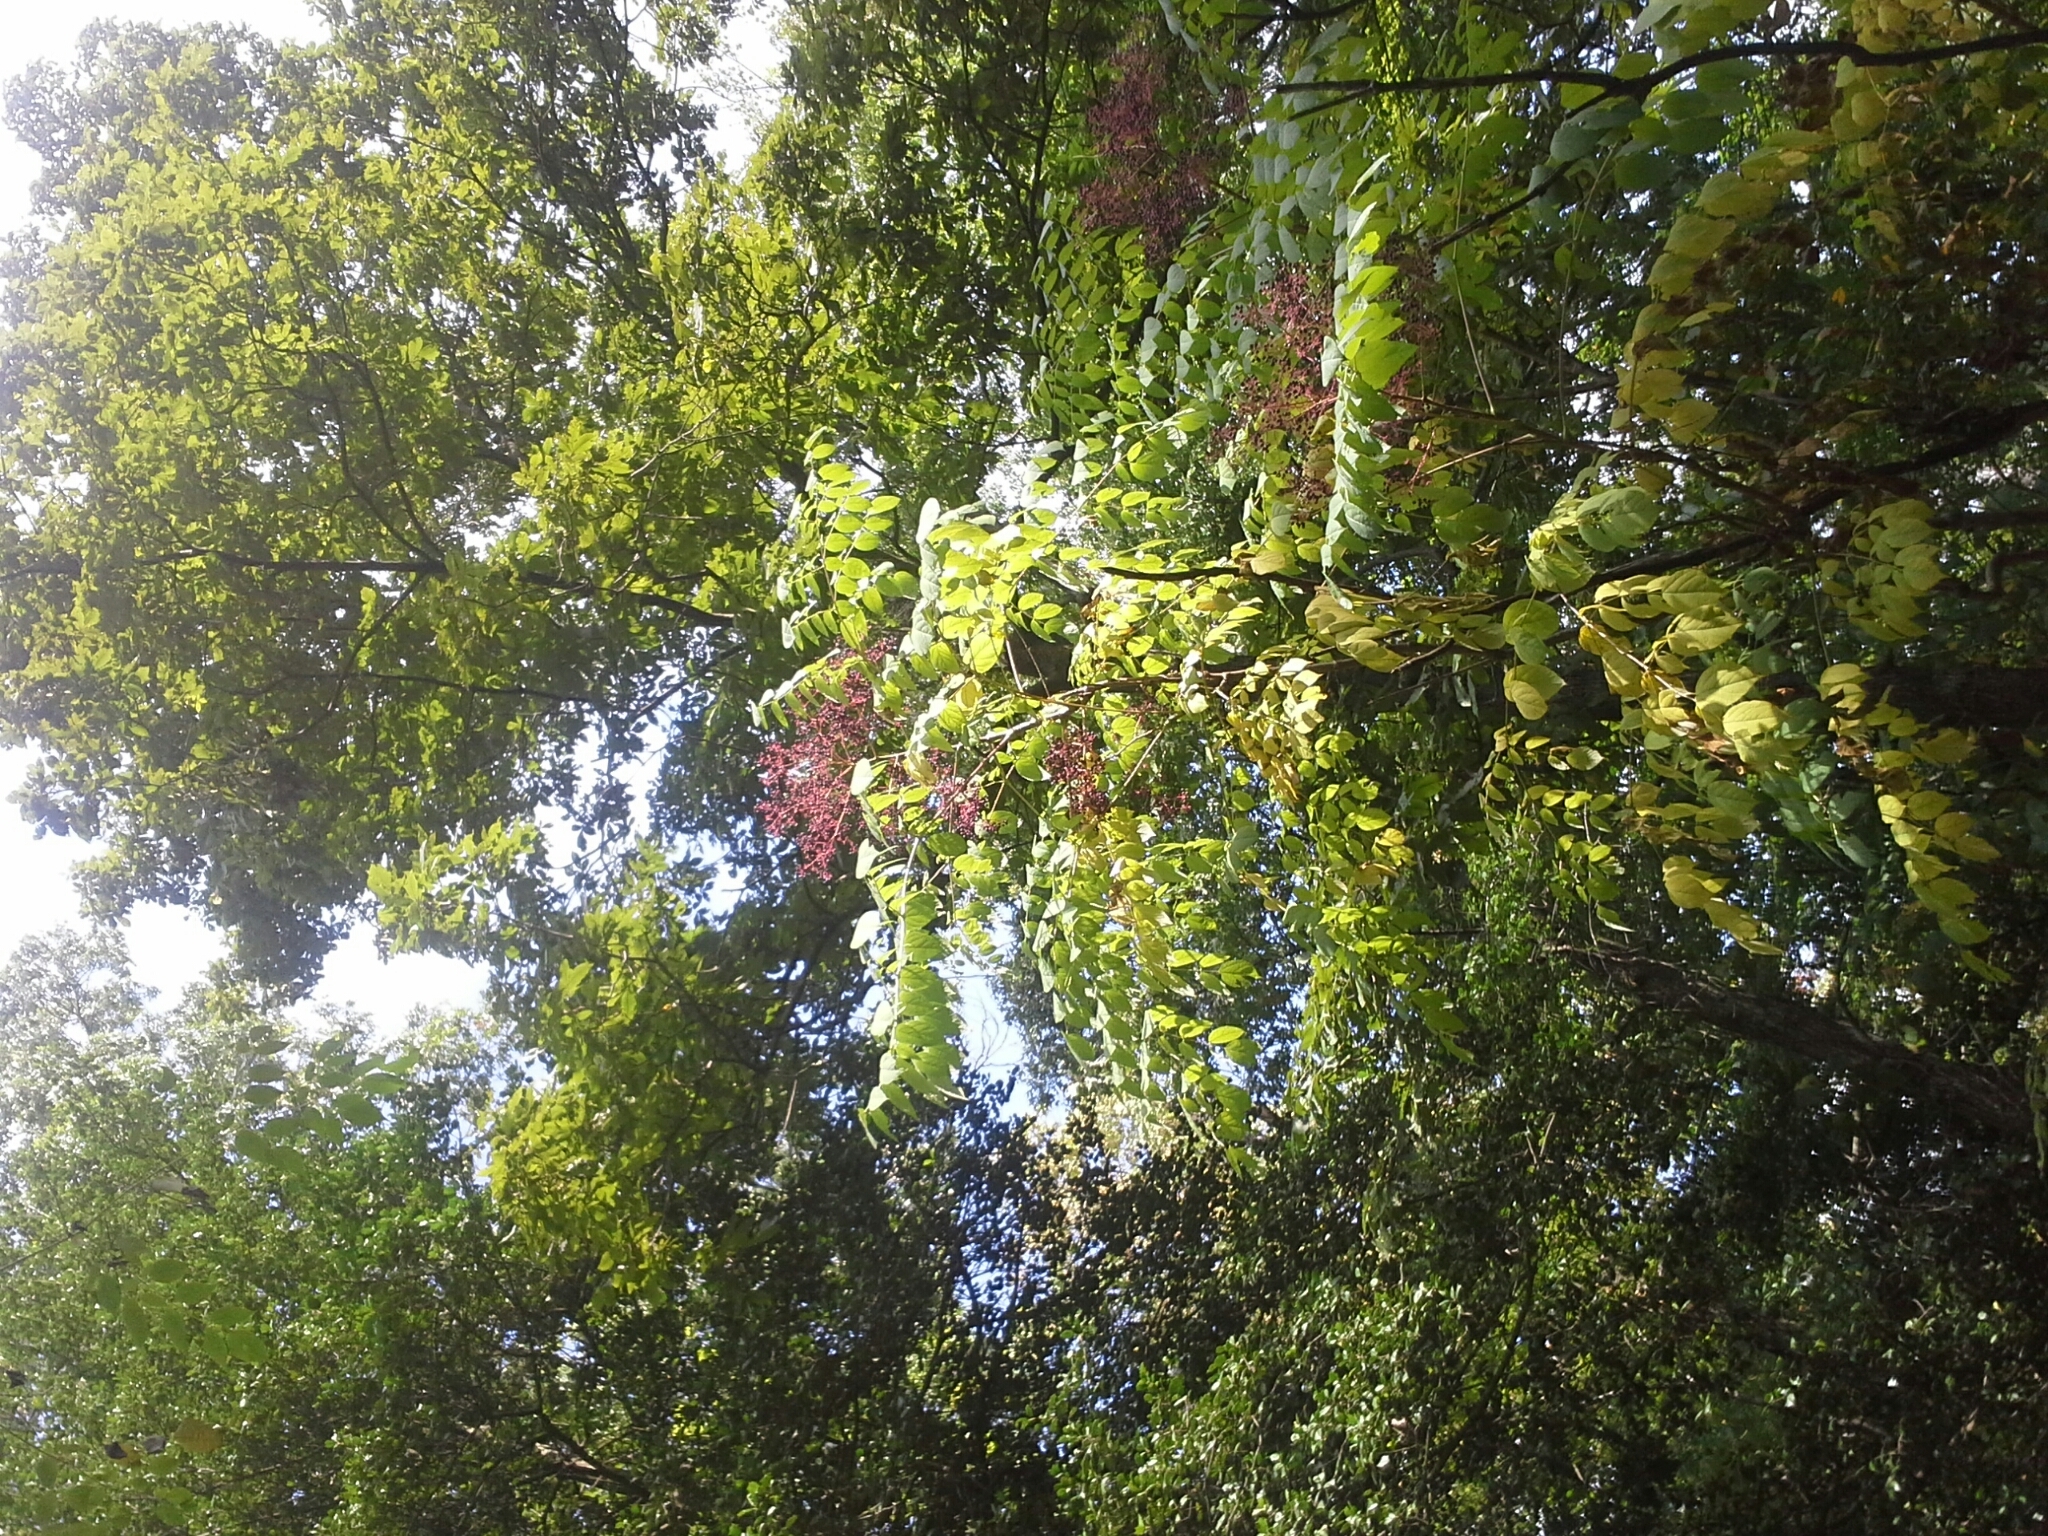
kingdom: Plantae
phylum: Tracheophyta
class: Magnoliopsida
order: Apiales
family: Araliaceae
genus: Aralia
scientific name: Aralia spinosa
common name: Hercules'-club
